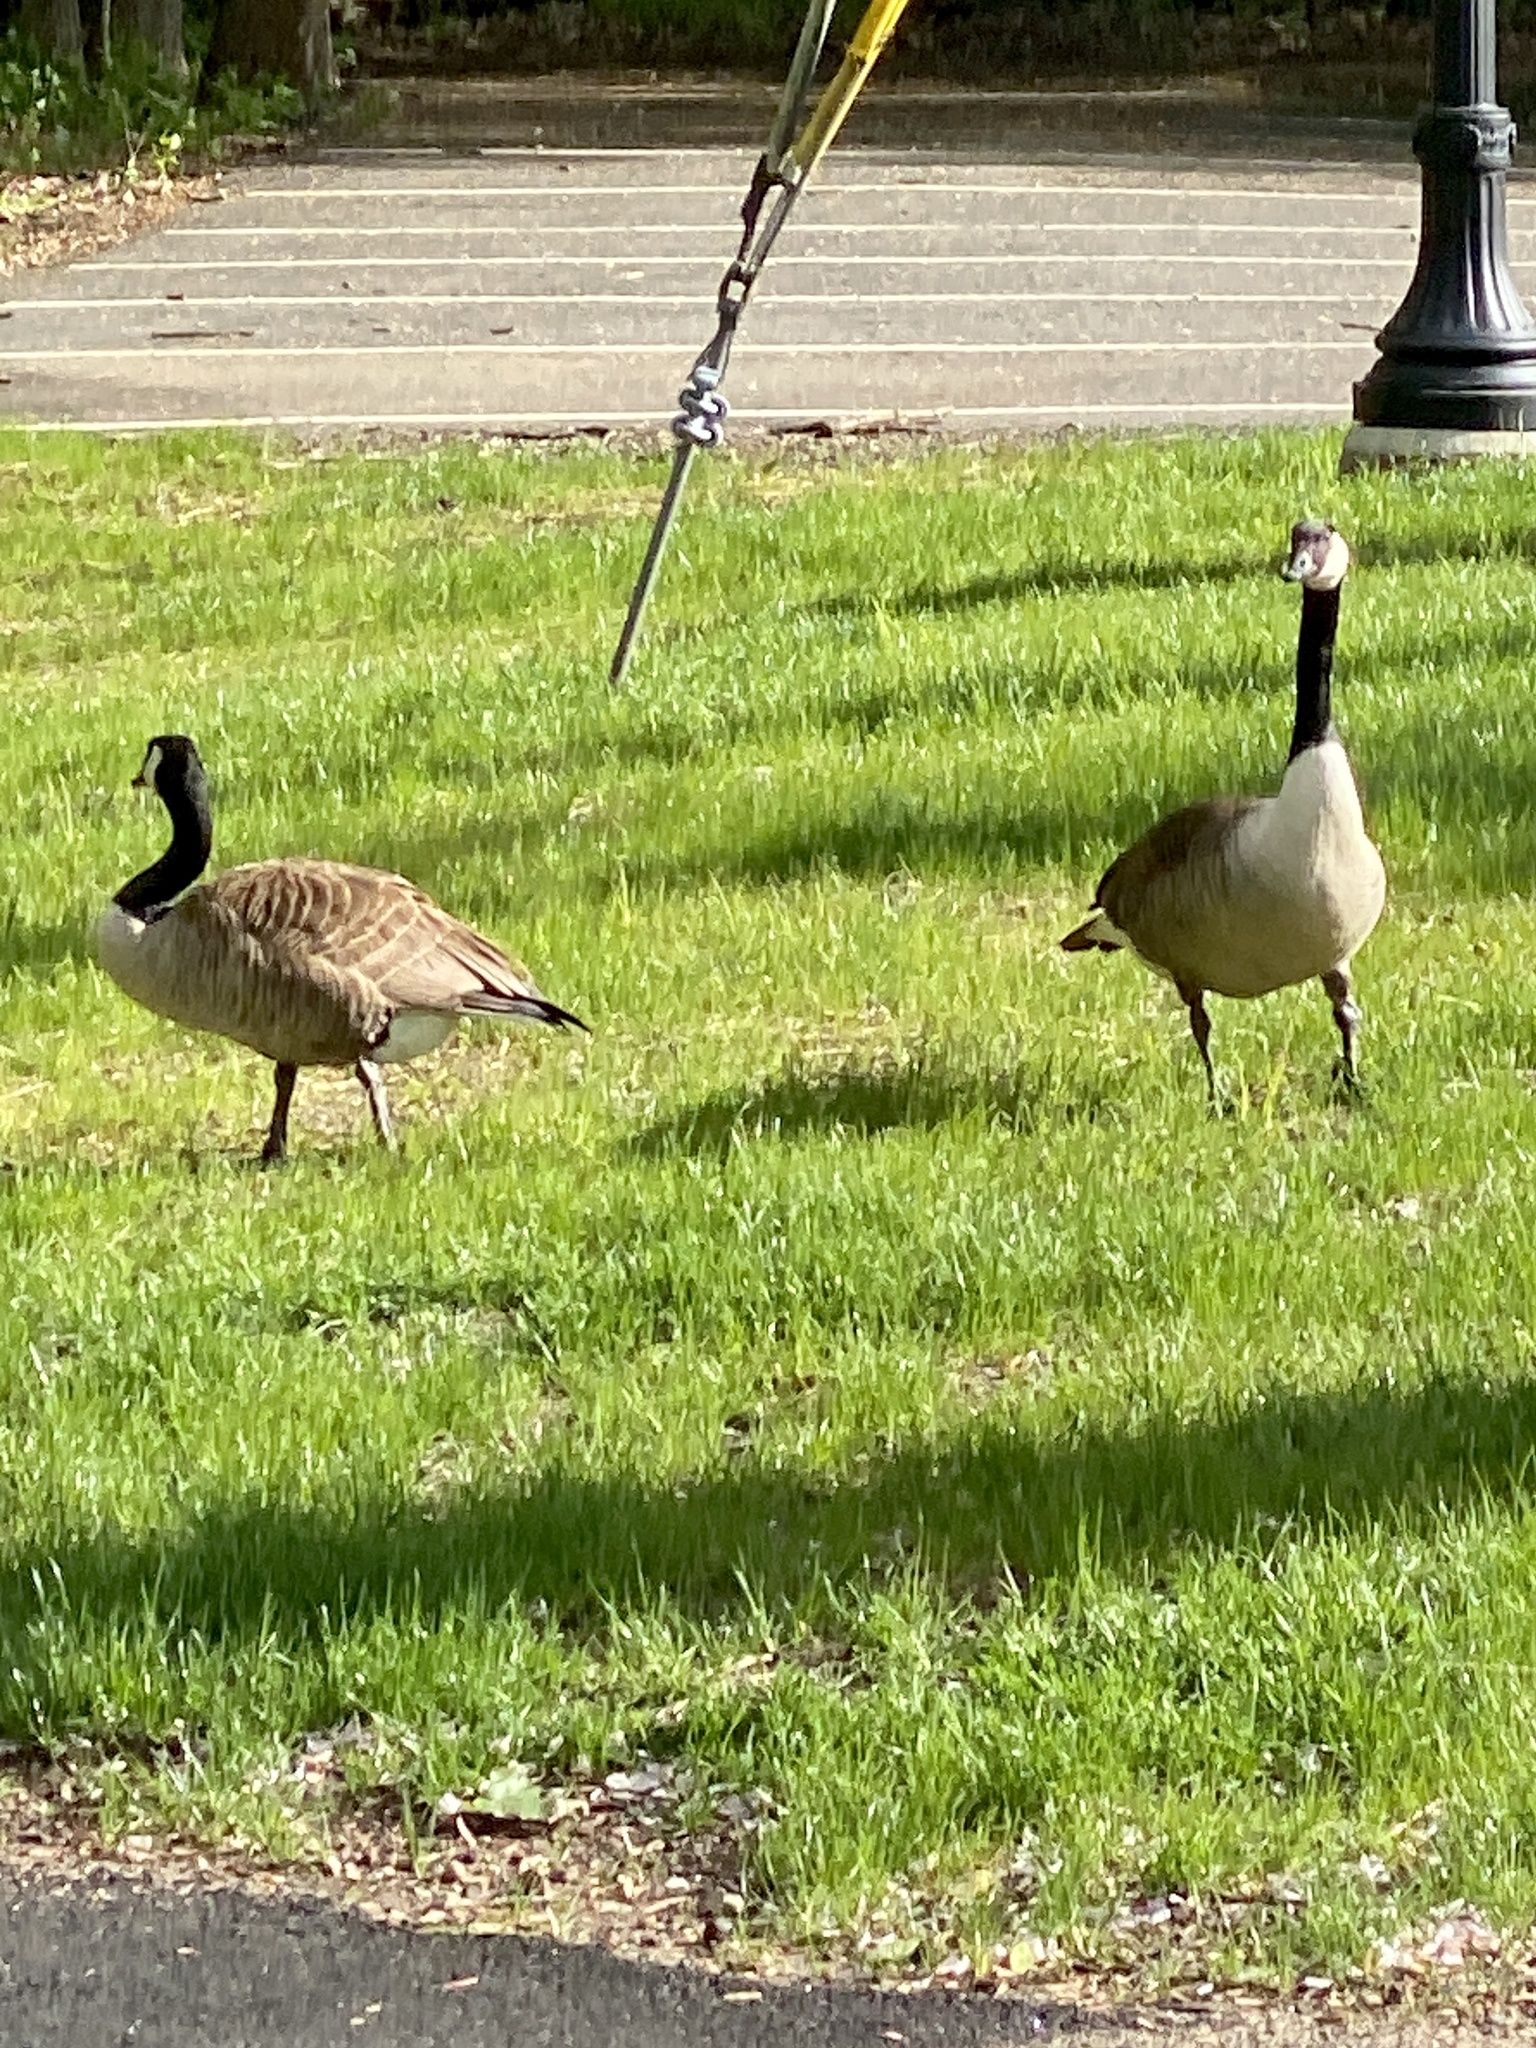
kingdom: Animalia
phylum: Chordata
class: Aves
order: Anseriformes
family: Anatidae
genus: Branta
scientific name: Branta canadensis
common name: Canada goose
